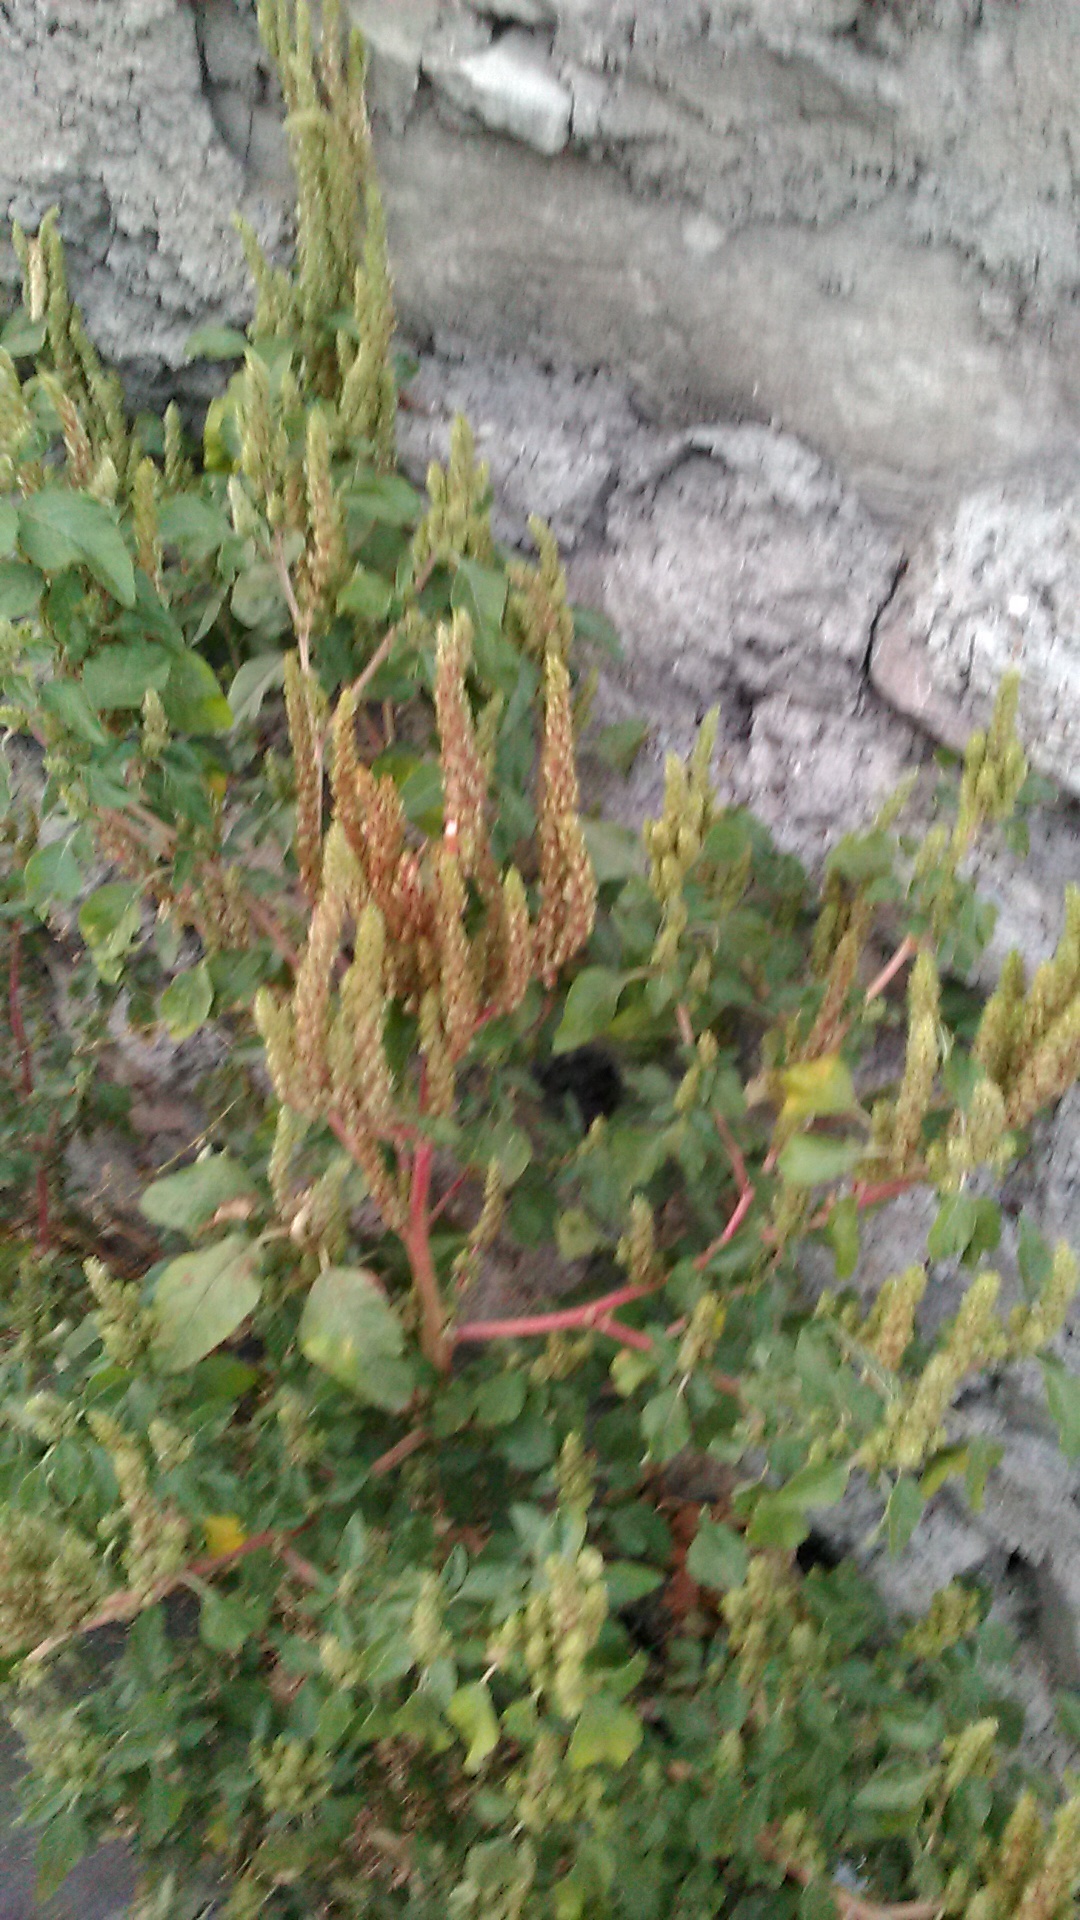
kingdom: Plantae
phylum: Tracheophyta
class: Magnoliopsida
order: Caryophyllales
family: Amaranthaceae
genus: Amaranthus
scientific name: Amaranthus retroflexus
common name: Redroot amaranth
